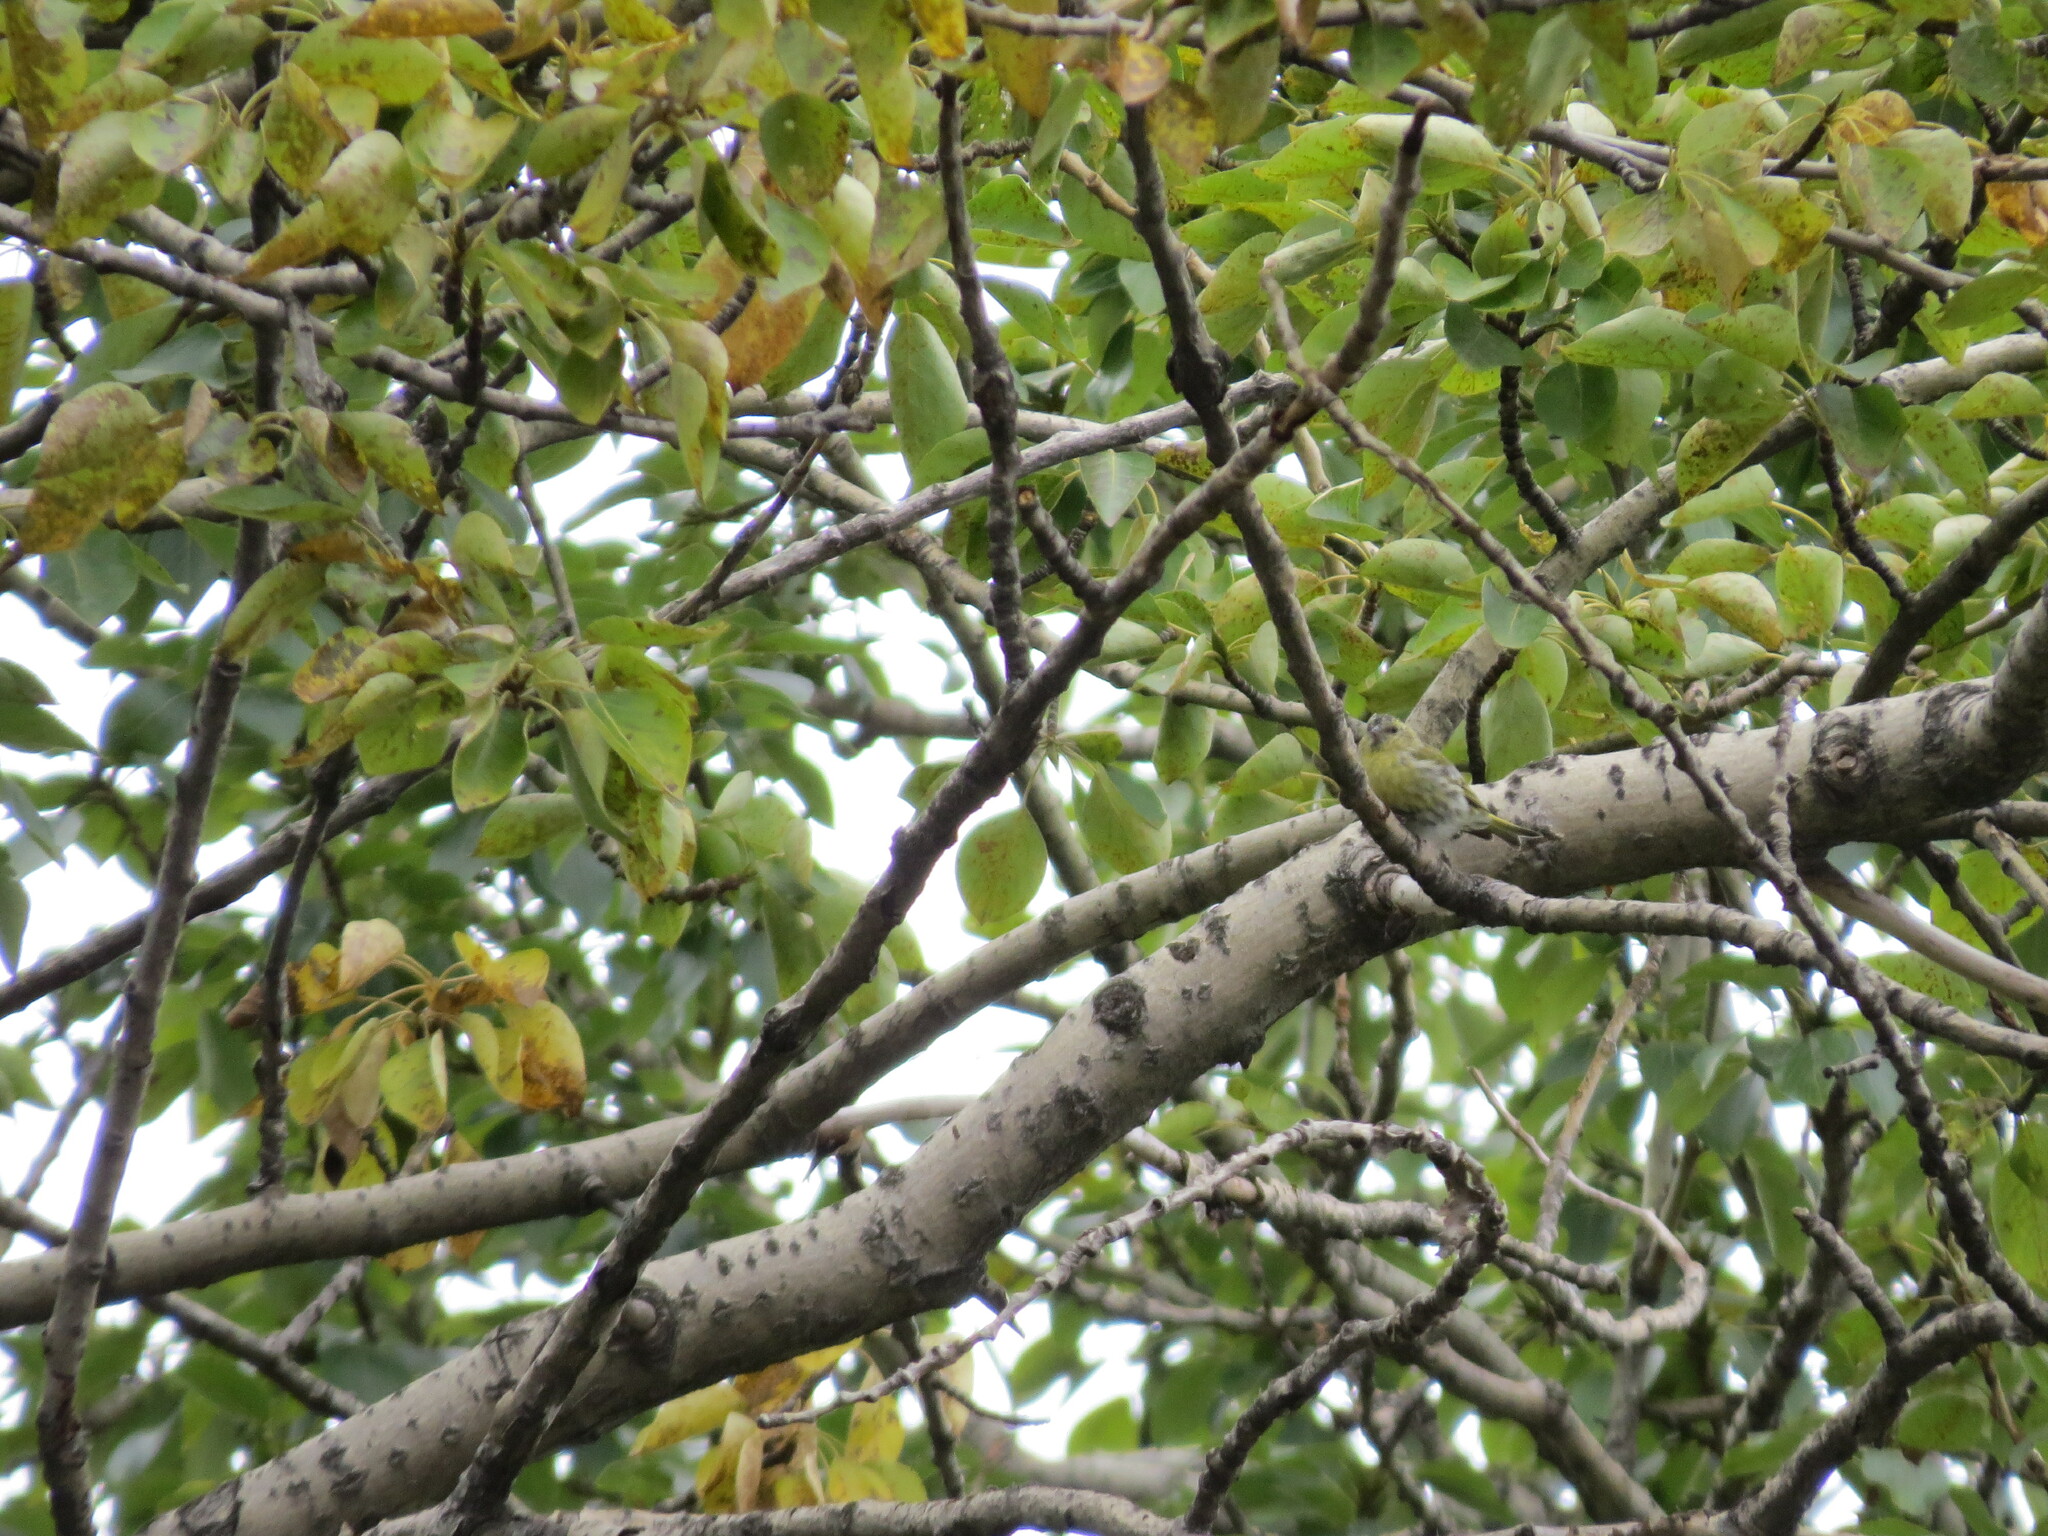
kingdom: Animalia
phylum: Chordata
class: Aves
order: Passeriformes
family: Fringillidae
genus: Spinus
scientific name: Spinus spinus
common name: Eurasian siskin
